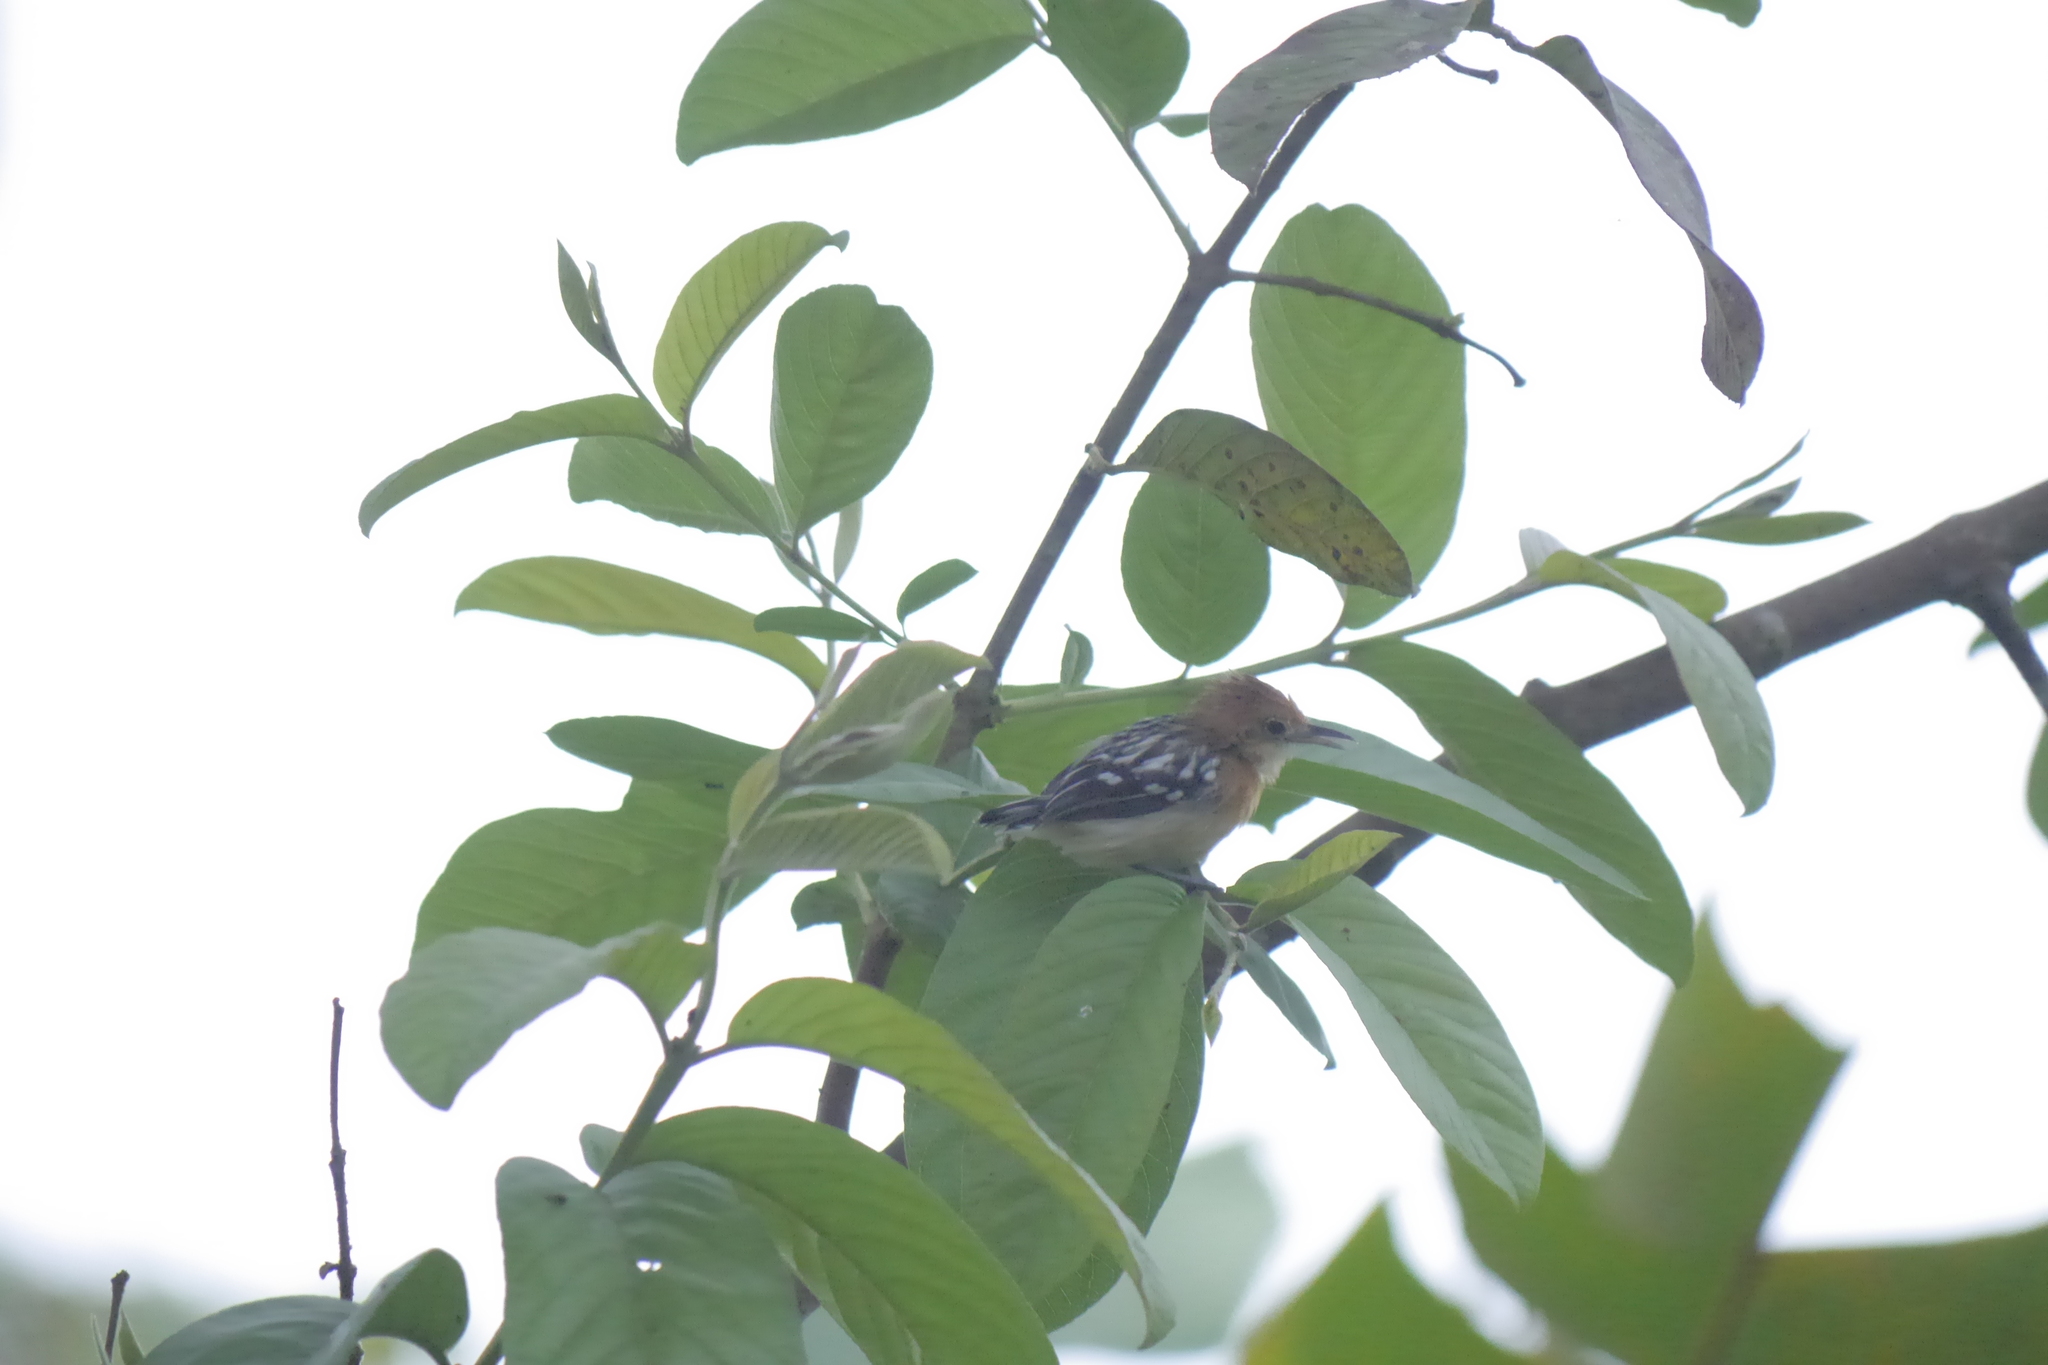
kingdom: Animalia
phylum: Chordata
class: Aves
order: Passeriformes
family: Thamnophilidae
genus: Myrmotherula
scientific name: Myrmotherula pacifica
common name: Pacific antwren
